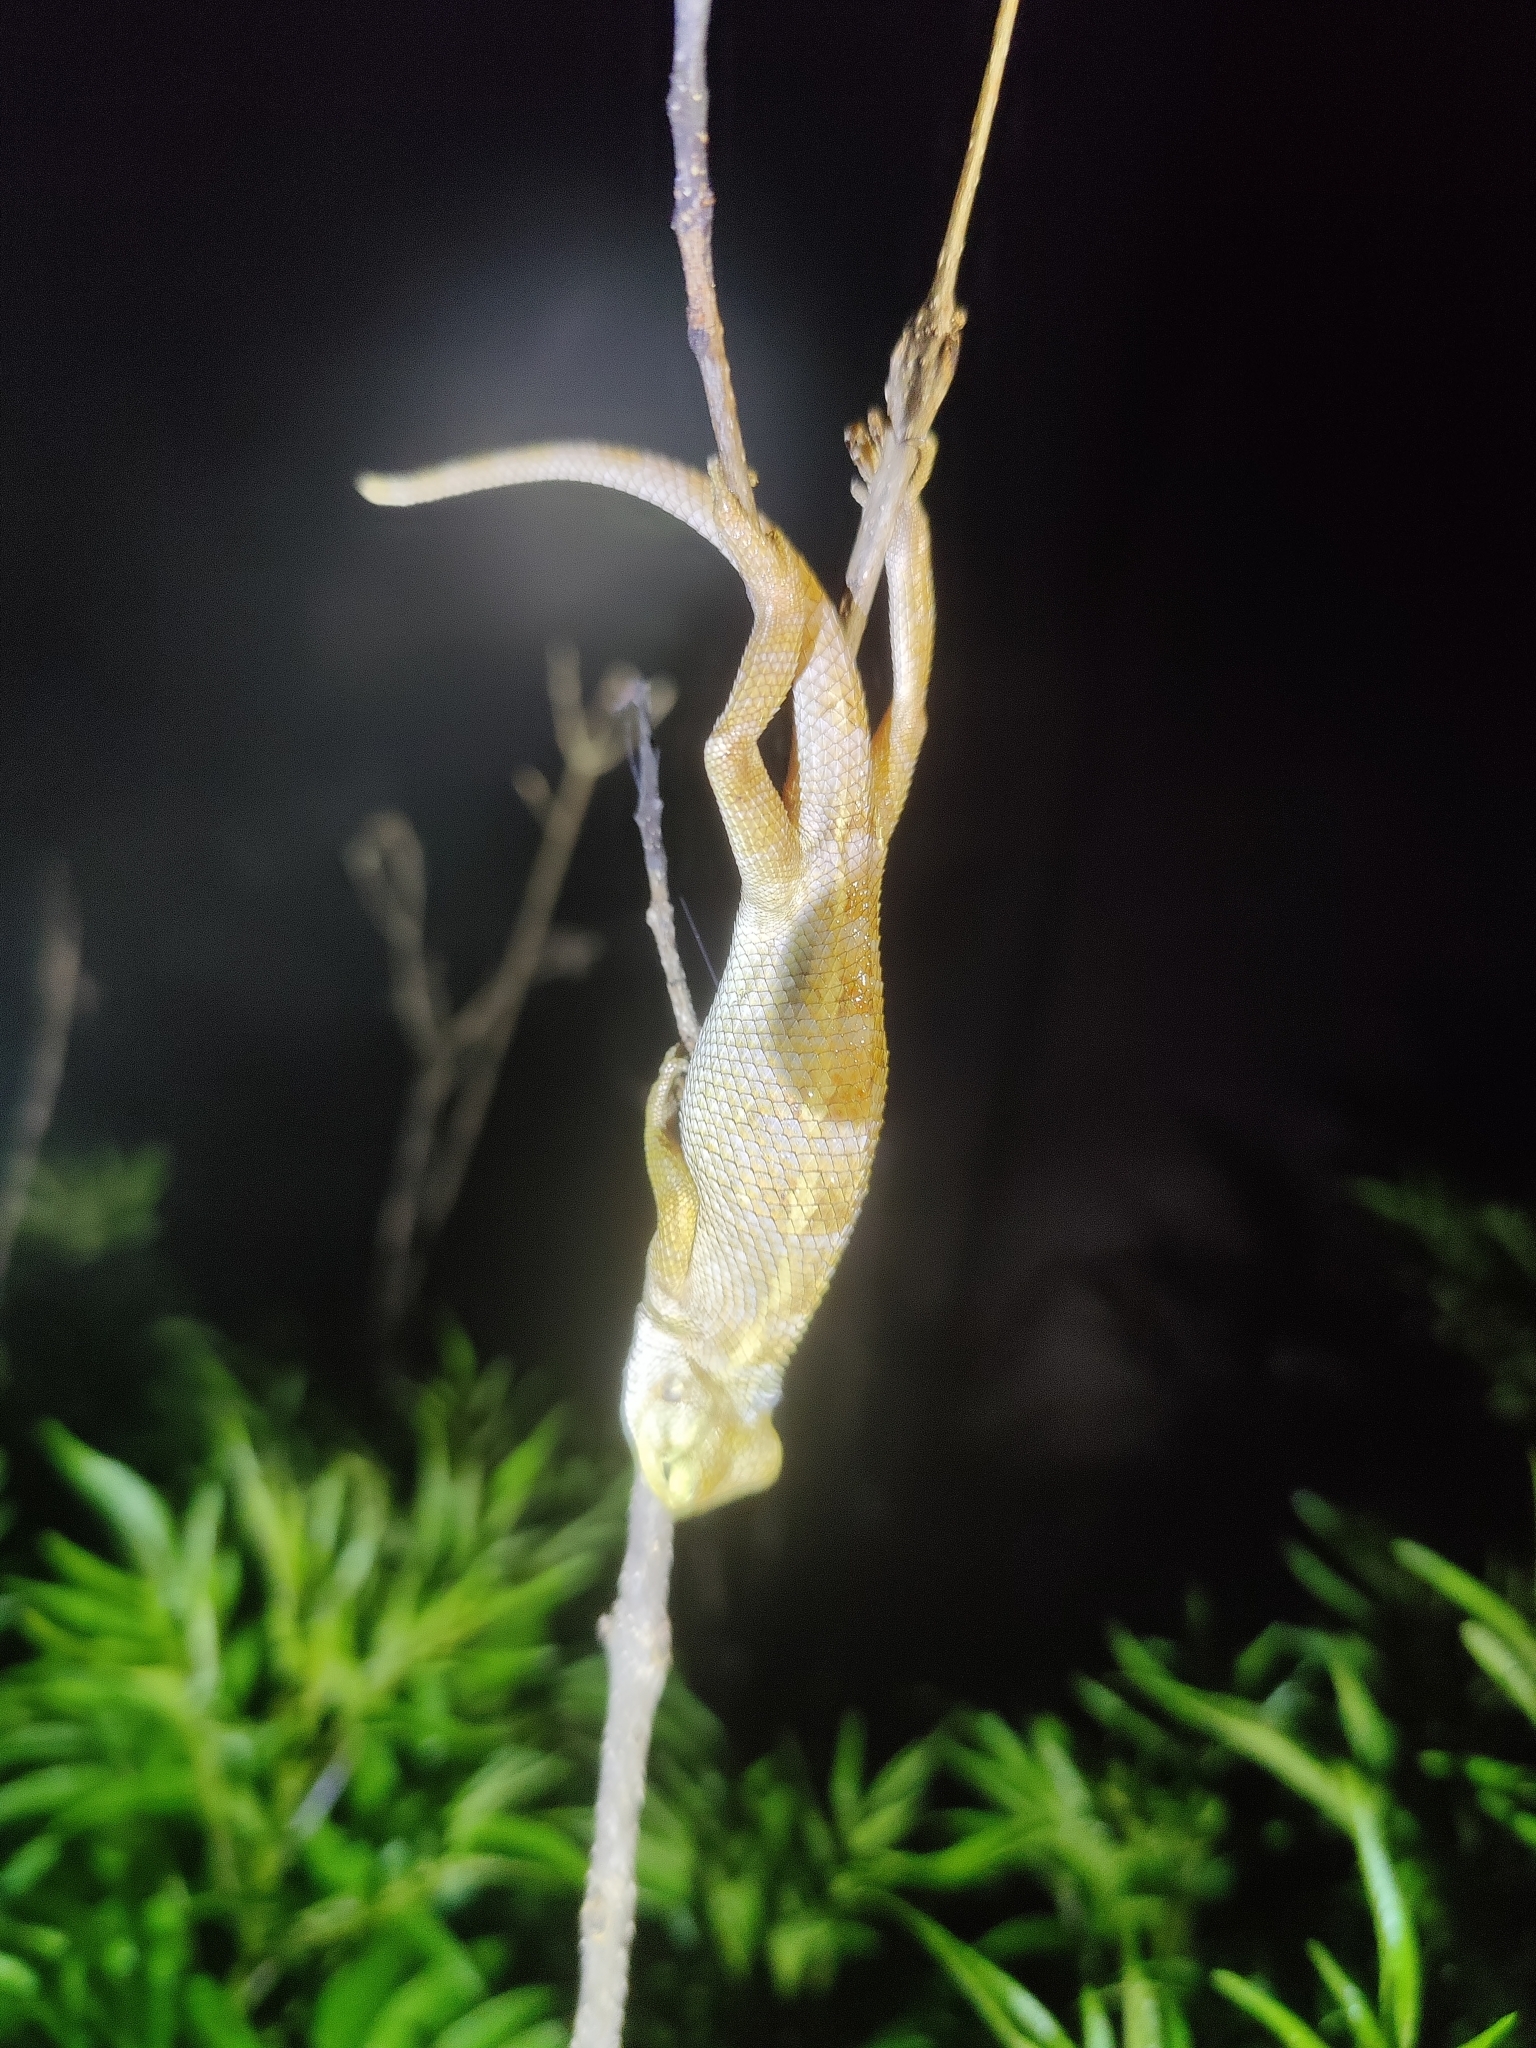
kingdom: Animalia
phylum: Chordata
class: Squamata
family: Agamidae
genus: Calotes
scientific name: Calotes versicolor
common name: Oriental garden lizard
